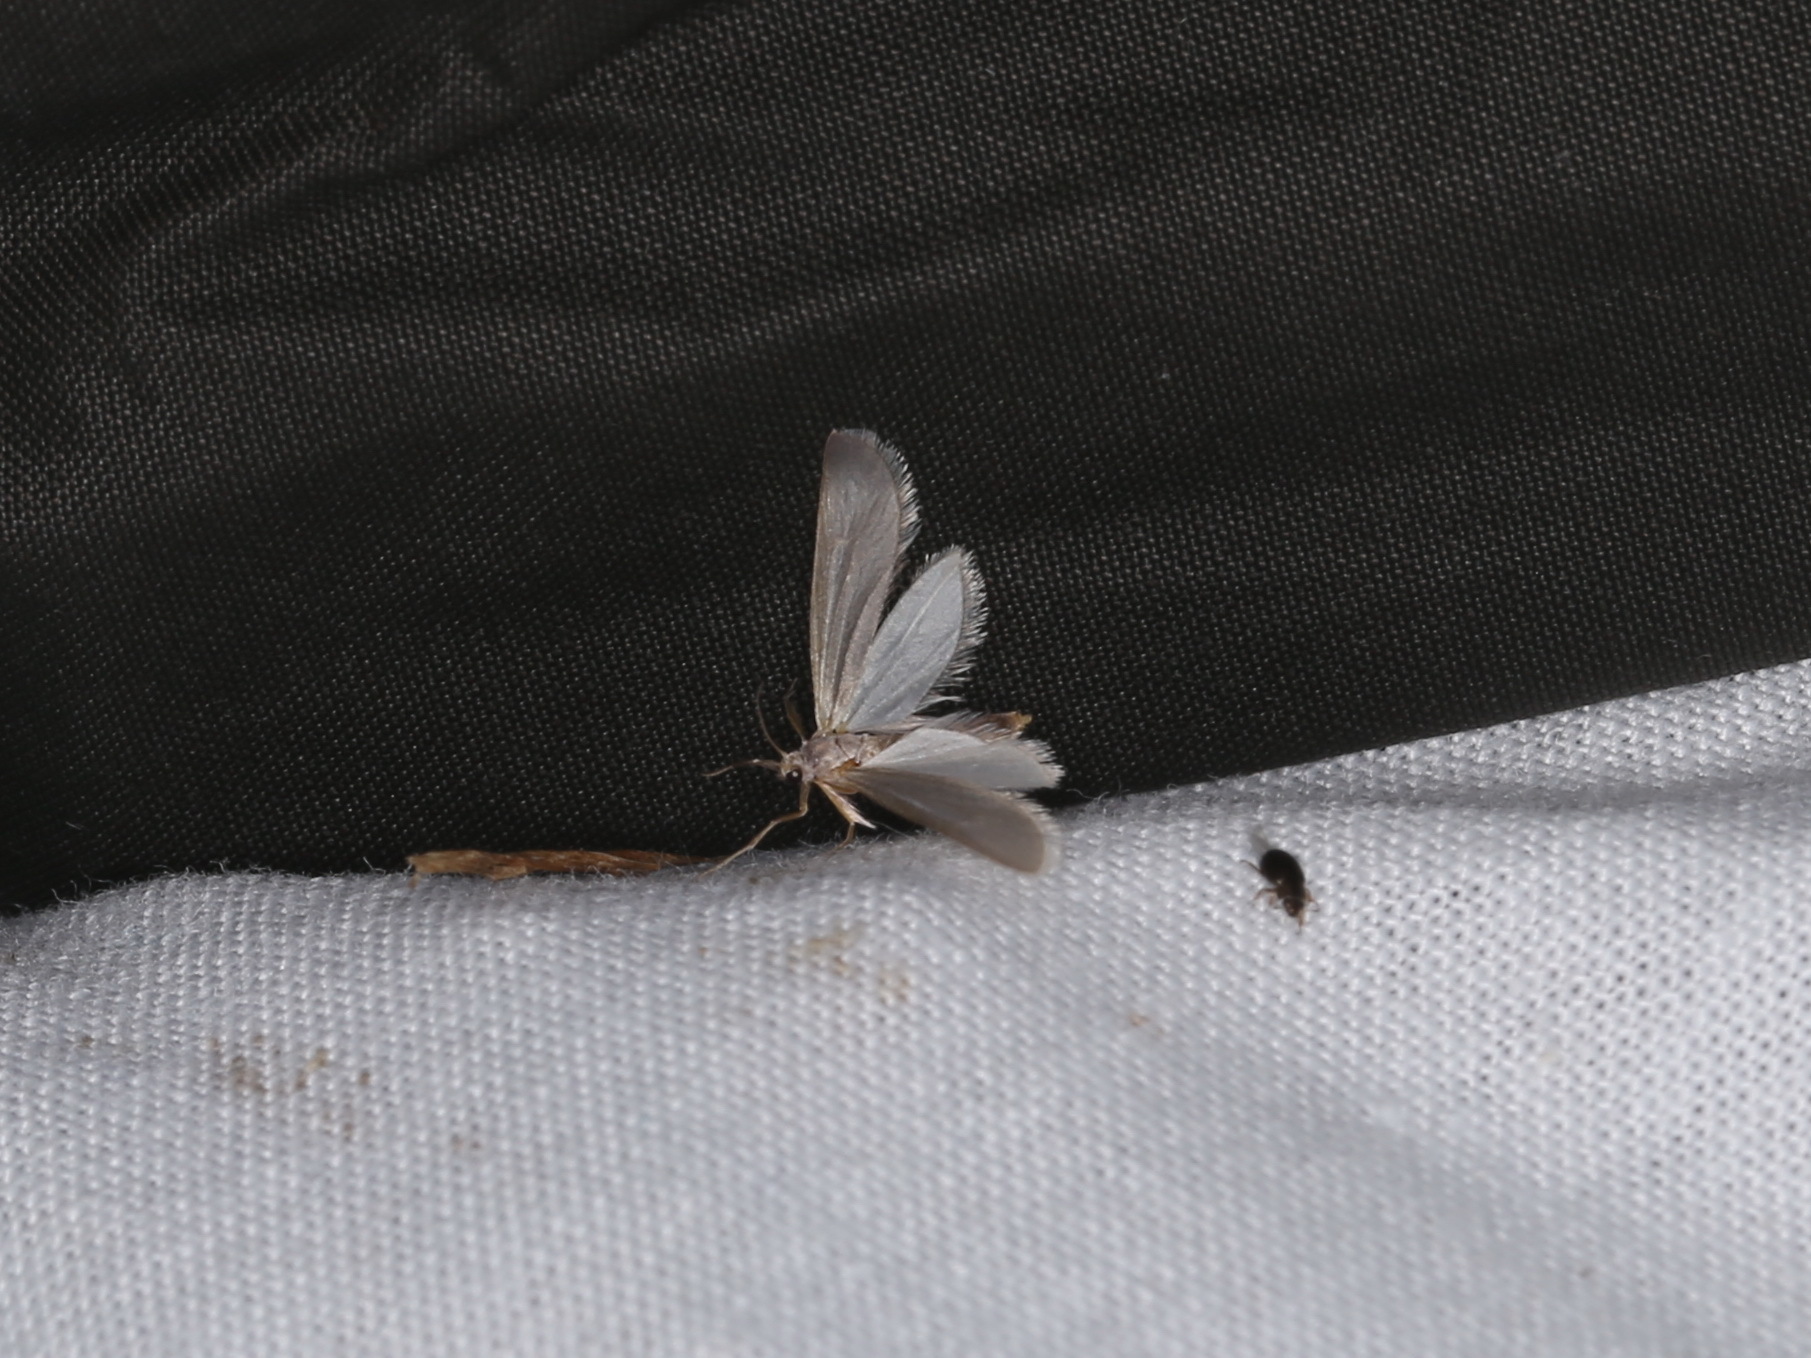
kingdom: Animalia
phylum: Arthropoda
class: Insecta
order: Lepidoptera
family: Crambidae
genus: Acentria
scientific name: Acentria ephemerella
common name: European water moth
